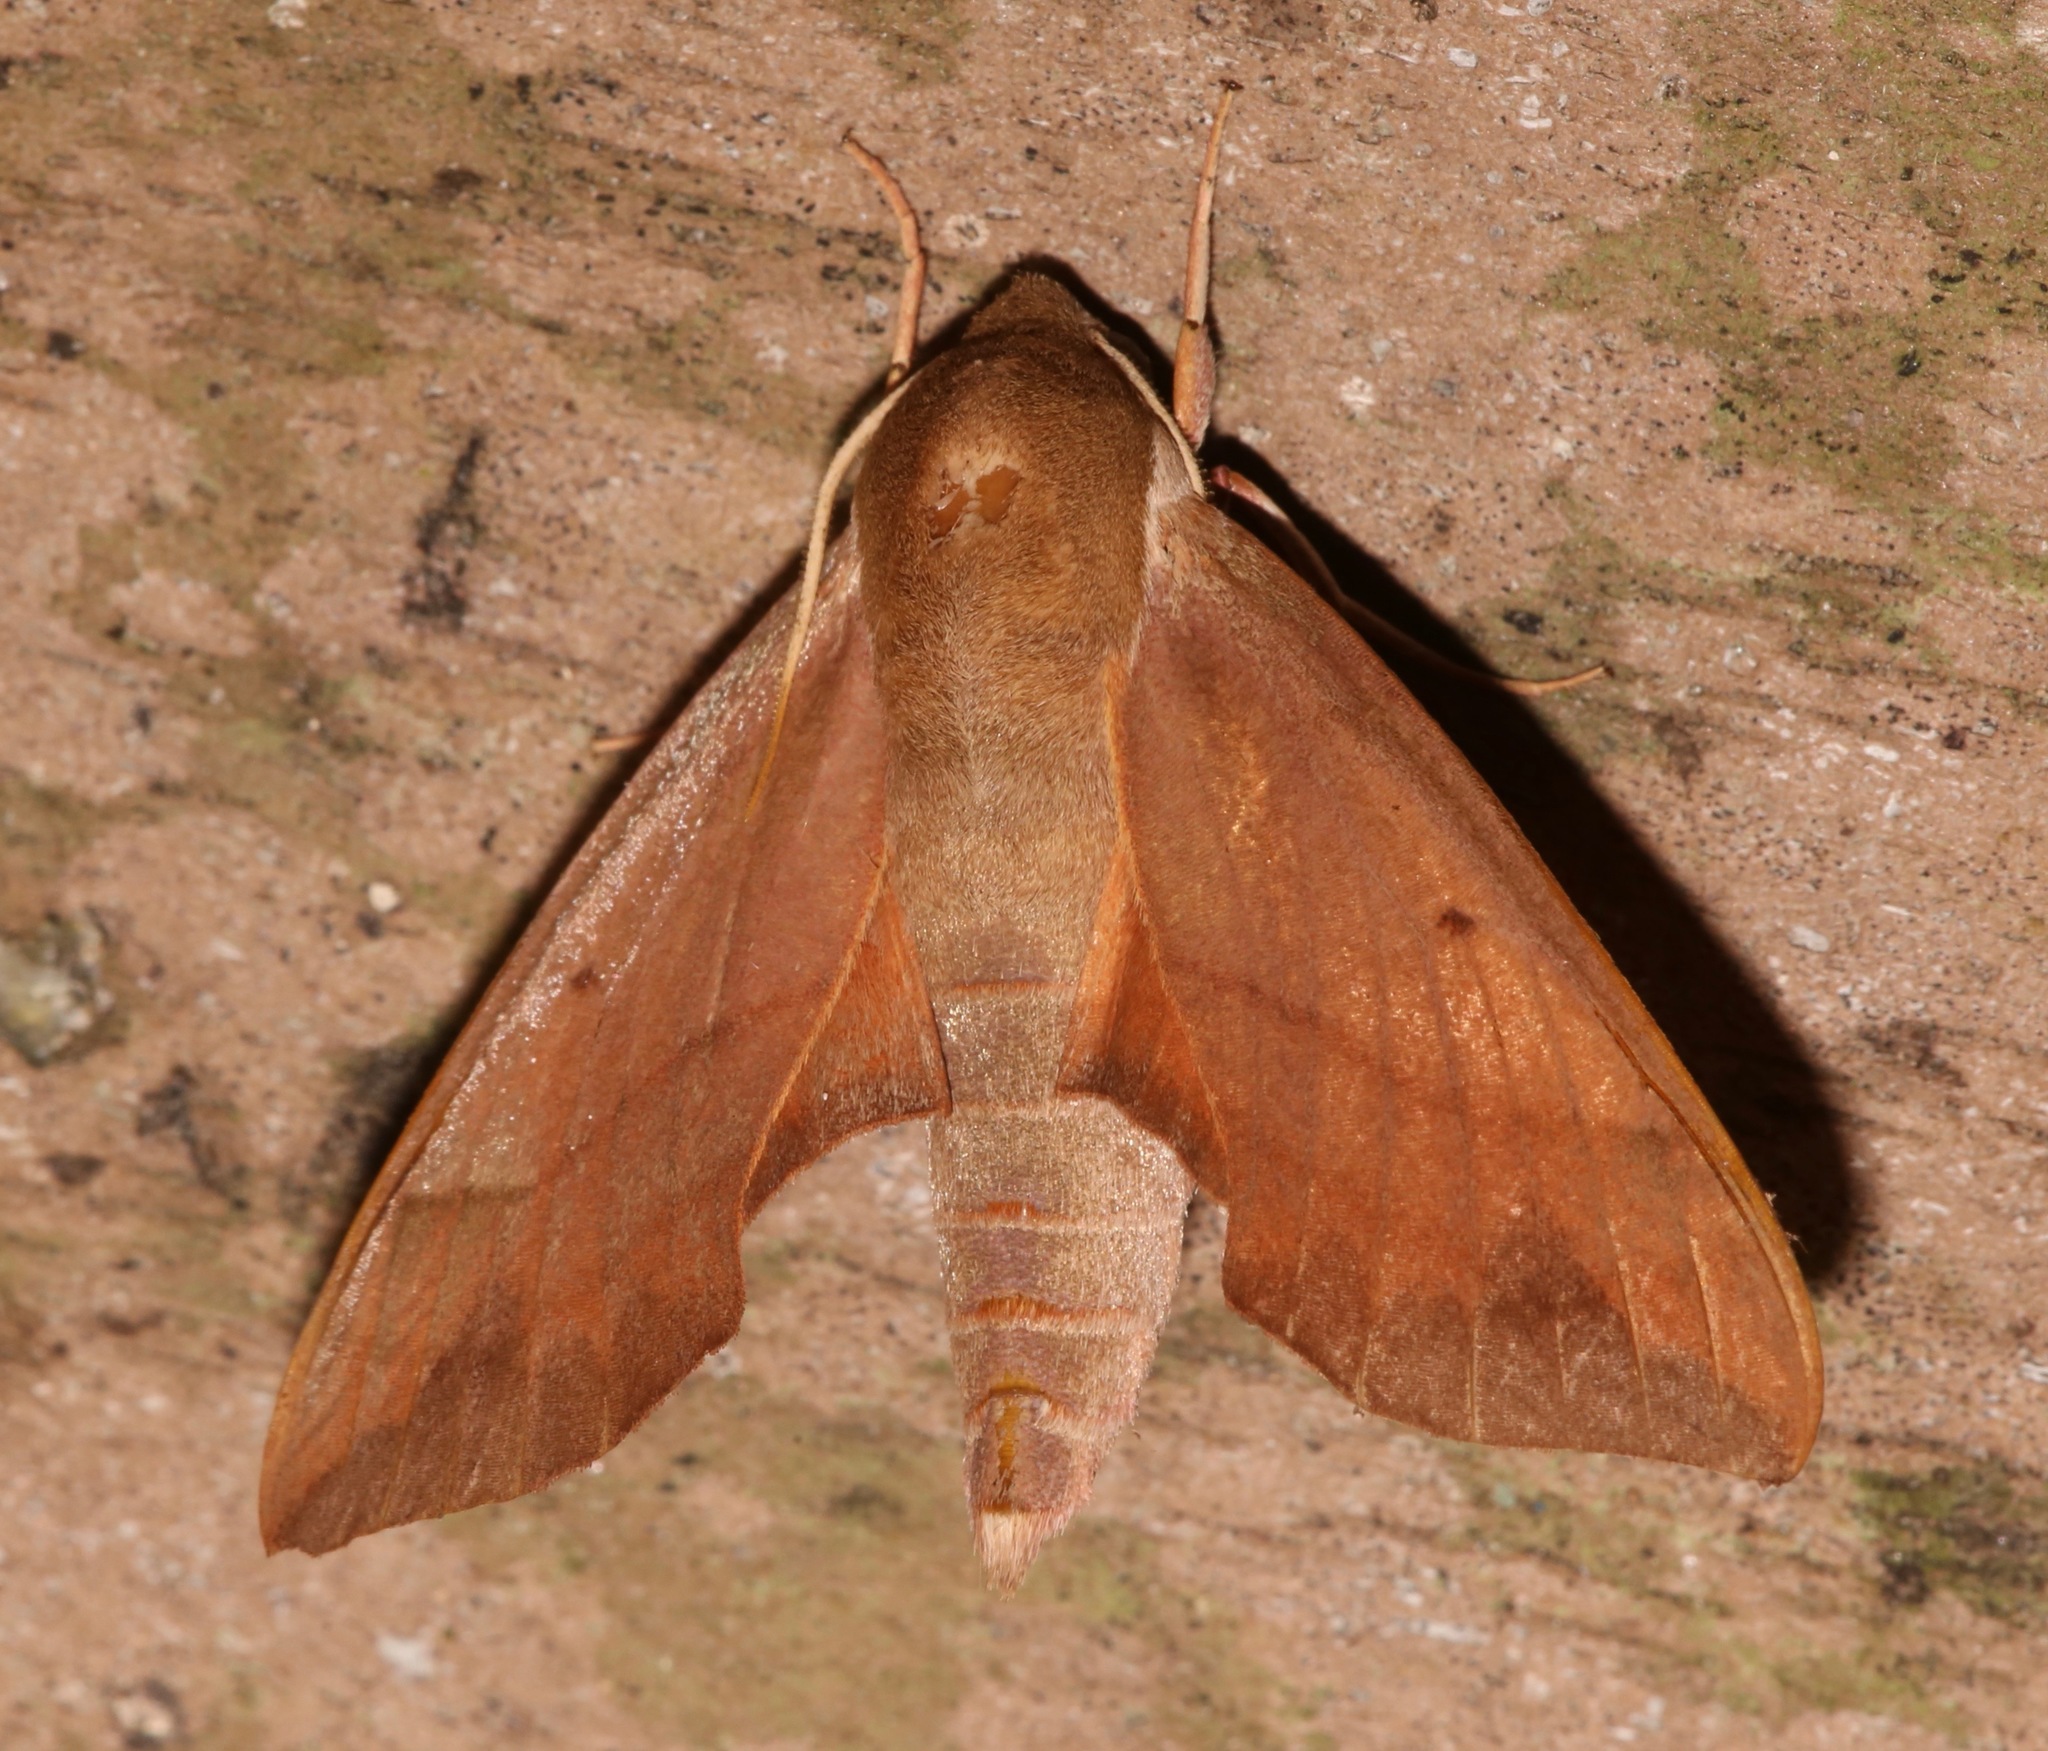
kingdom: Animalia
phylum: Arthropoda
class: Insecta
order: Lepidoptera
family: Sphingidae
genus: Darapsa
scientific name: Darapsa myron
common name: Hog sphinx
